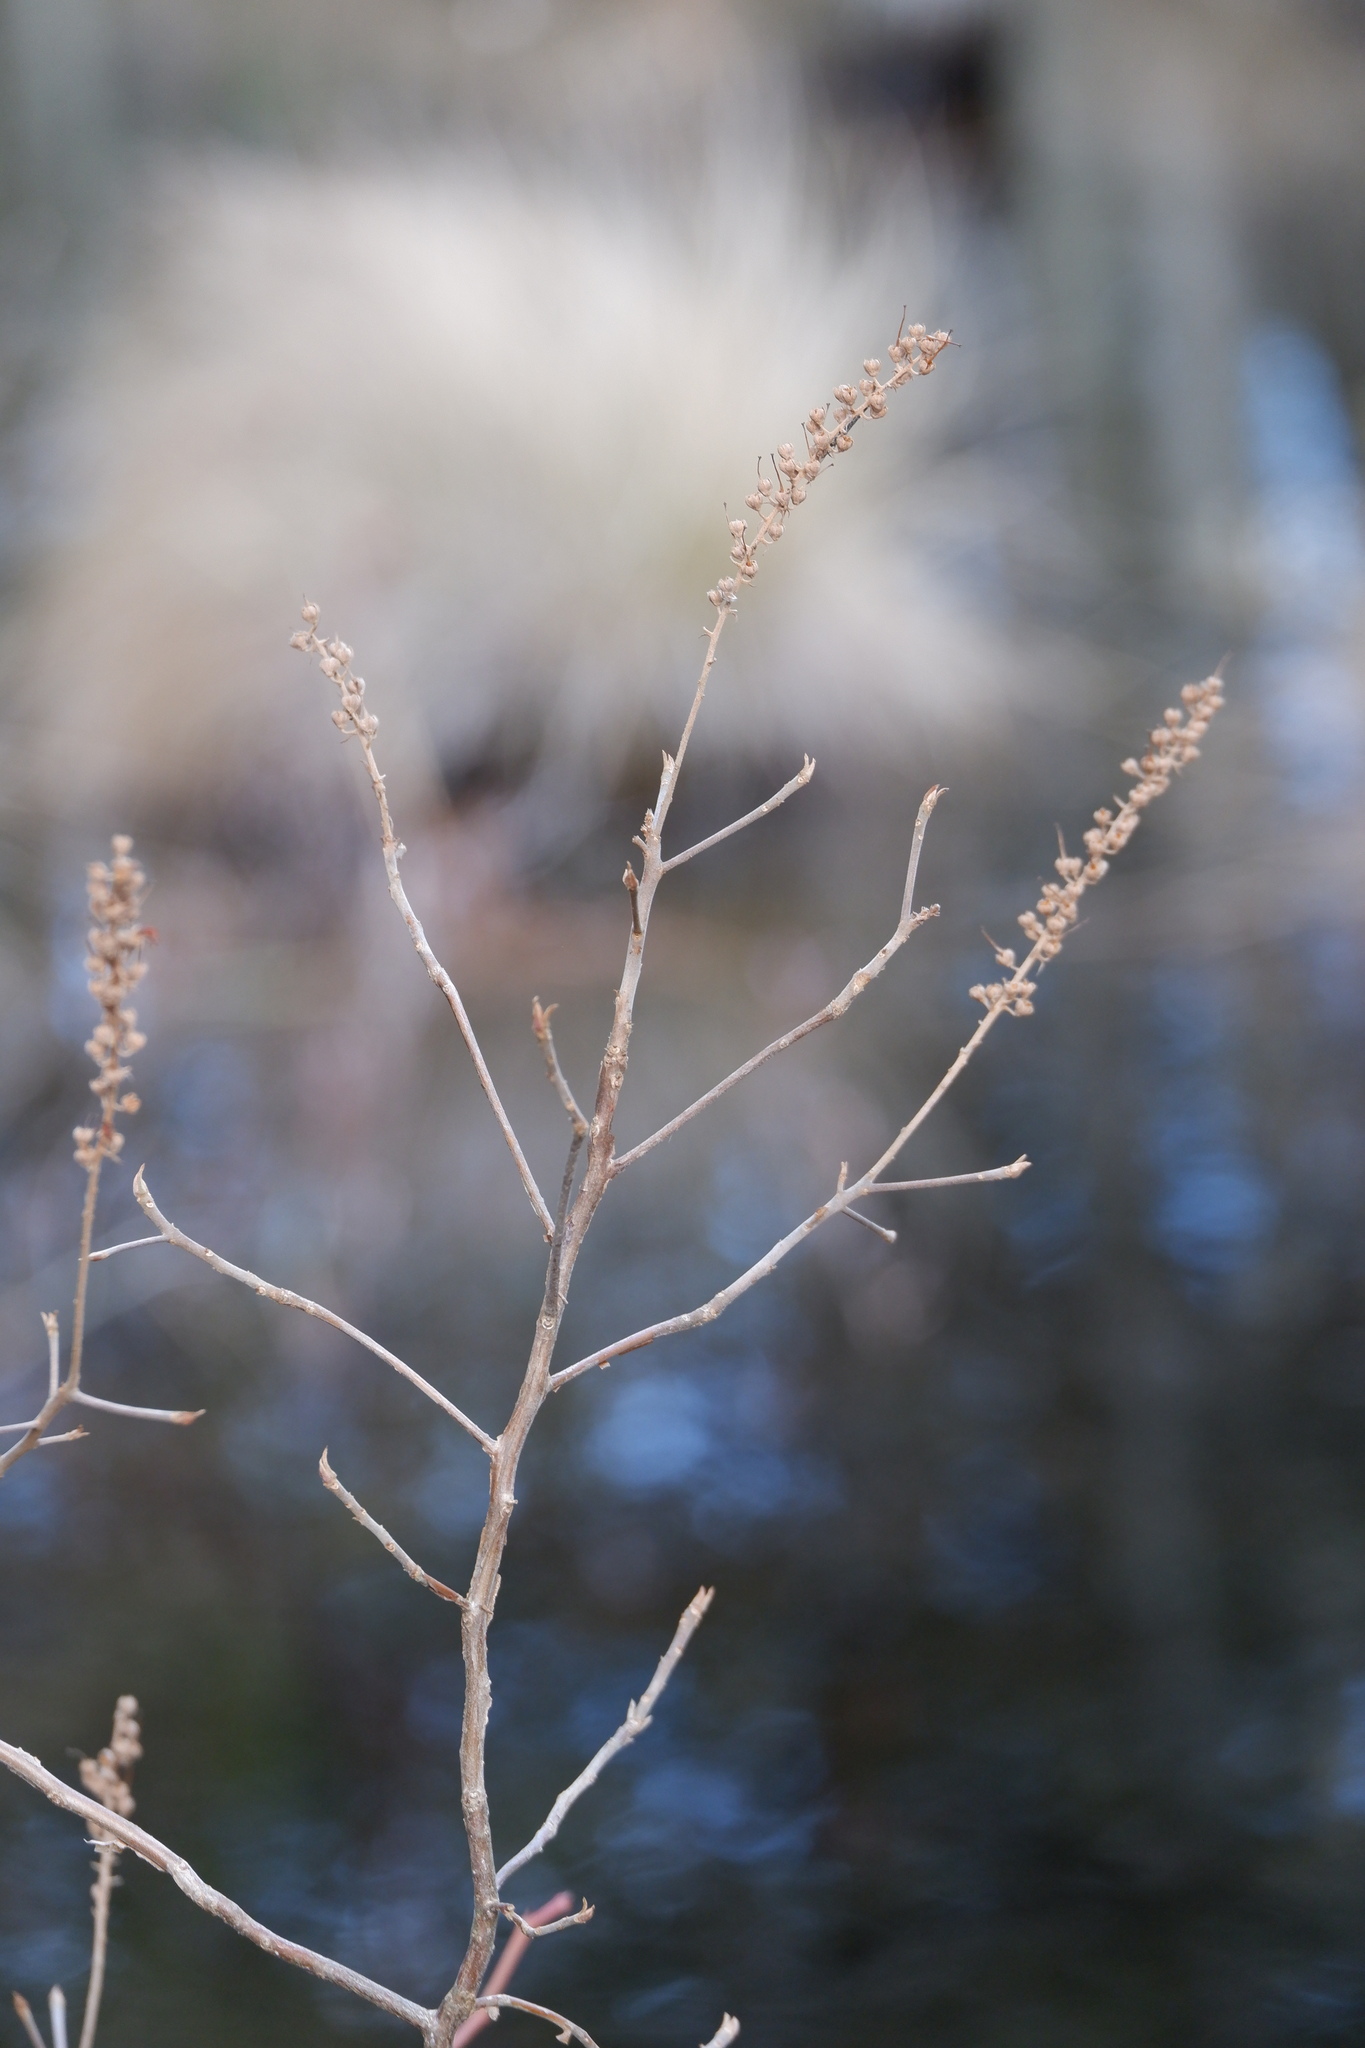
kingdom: Plantae
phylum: Tracheophyta
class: Magnoliopsida
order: Ericales
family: Clethraceae
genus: Clethra
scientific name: Clethra alnifolia
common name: Sweet pepperbush
